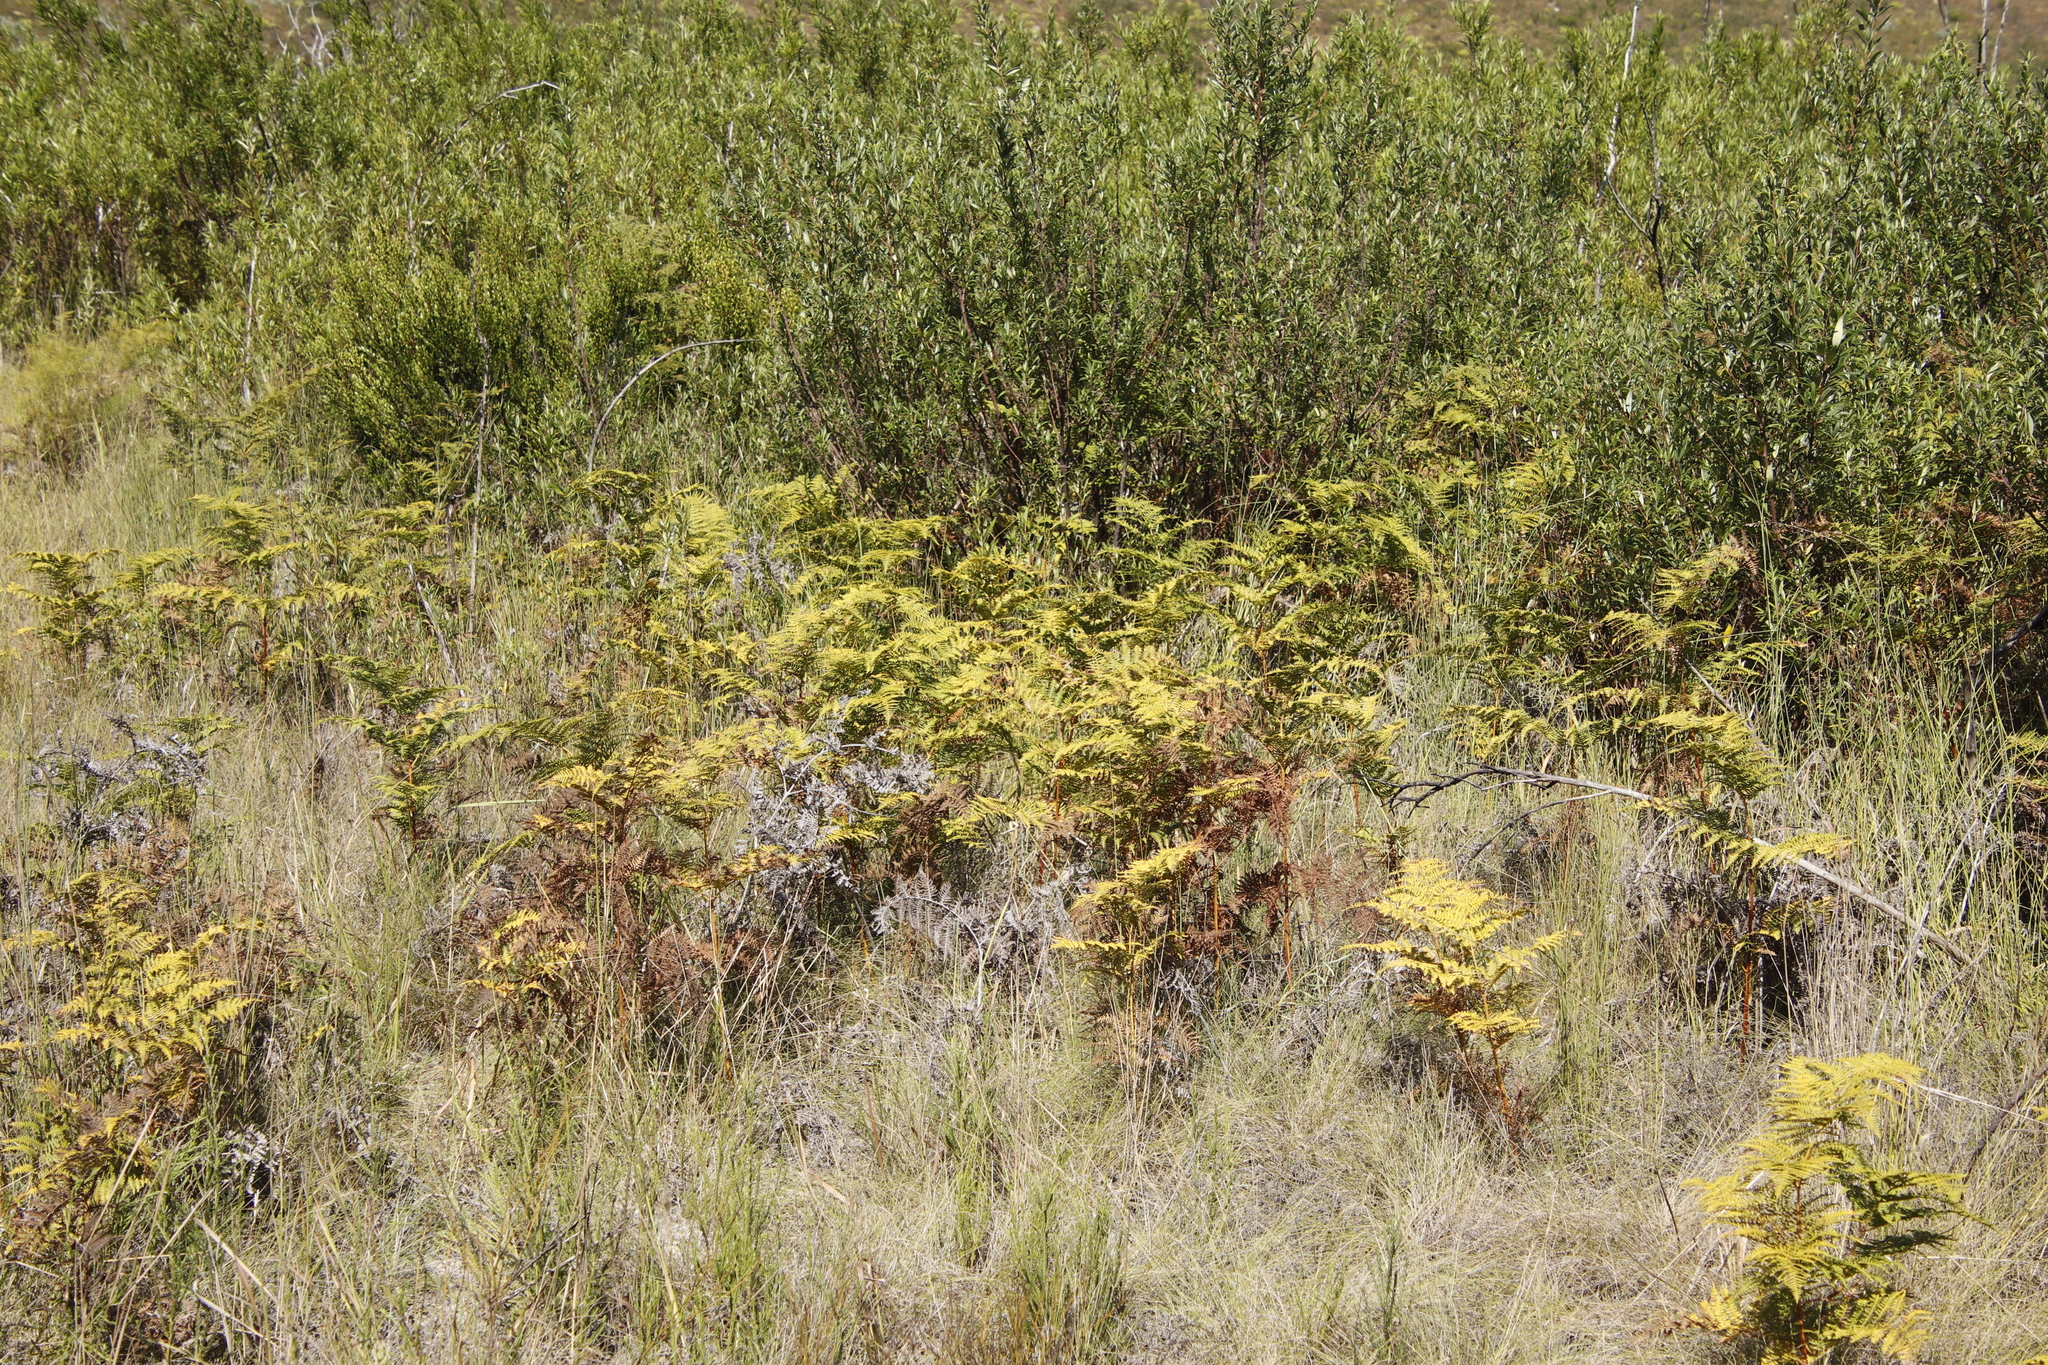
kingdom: Plantae
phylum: Tracheophyta
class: Polypodiopsida
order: Polypodiales
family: Dennstaedtiaceae
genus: Pteridium
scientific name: Pteridium aquilinum
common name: Bracken
